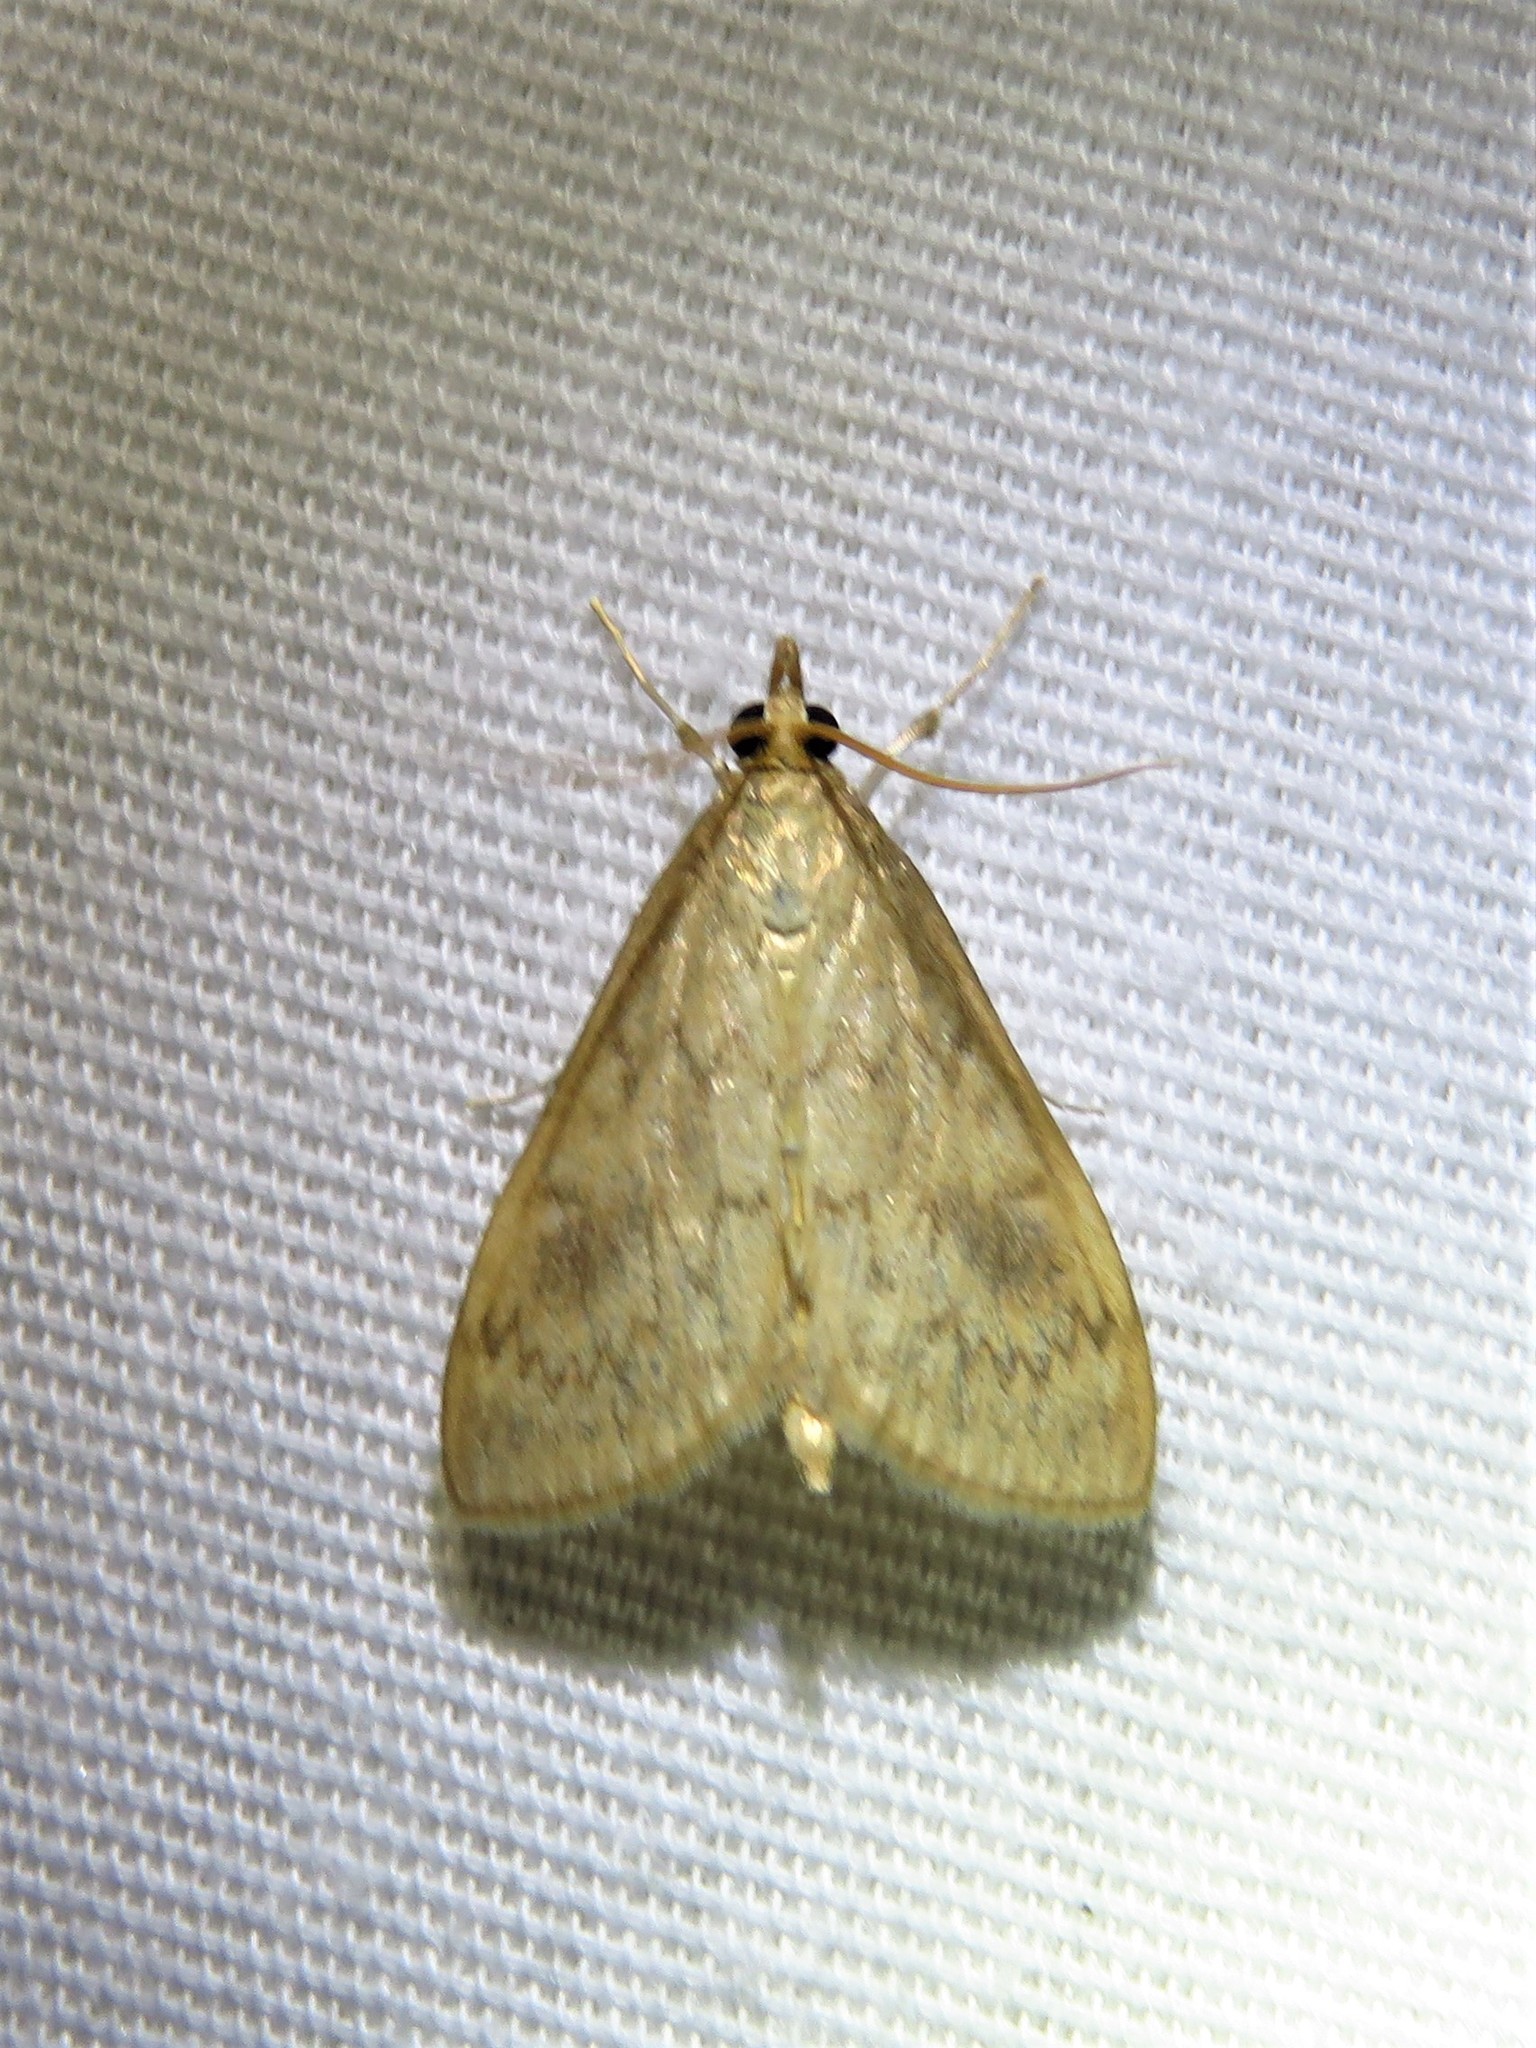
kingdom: Animalia
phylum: Arthropoda
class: Insecta
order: Lepidoptera
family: Crambidae
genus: Ostrinia
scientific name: Ostrinia penitalis
